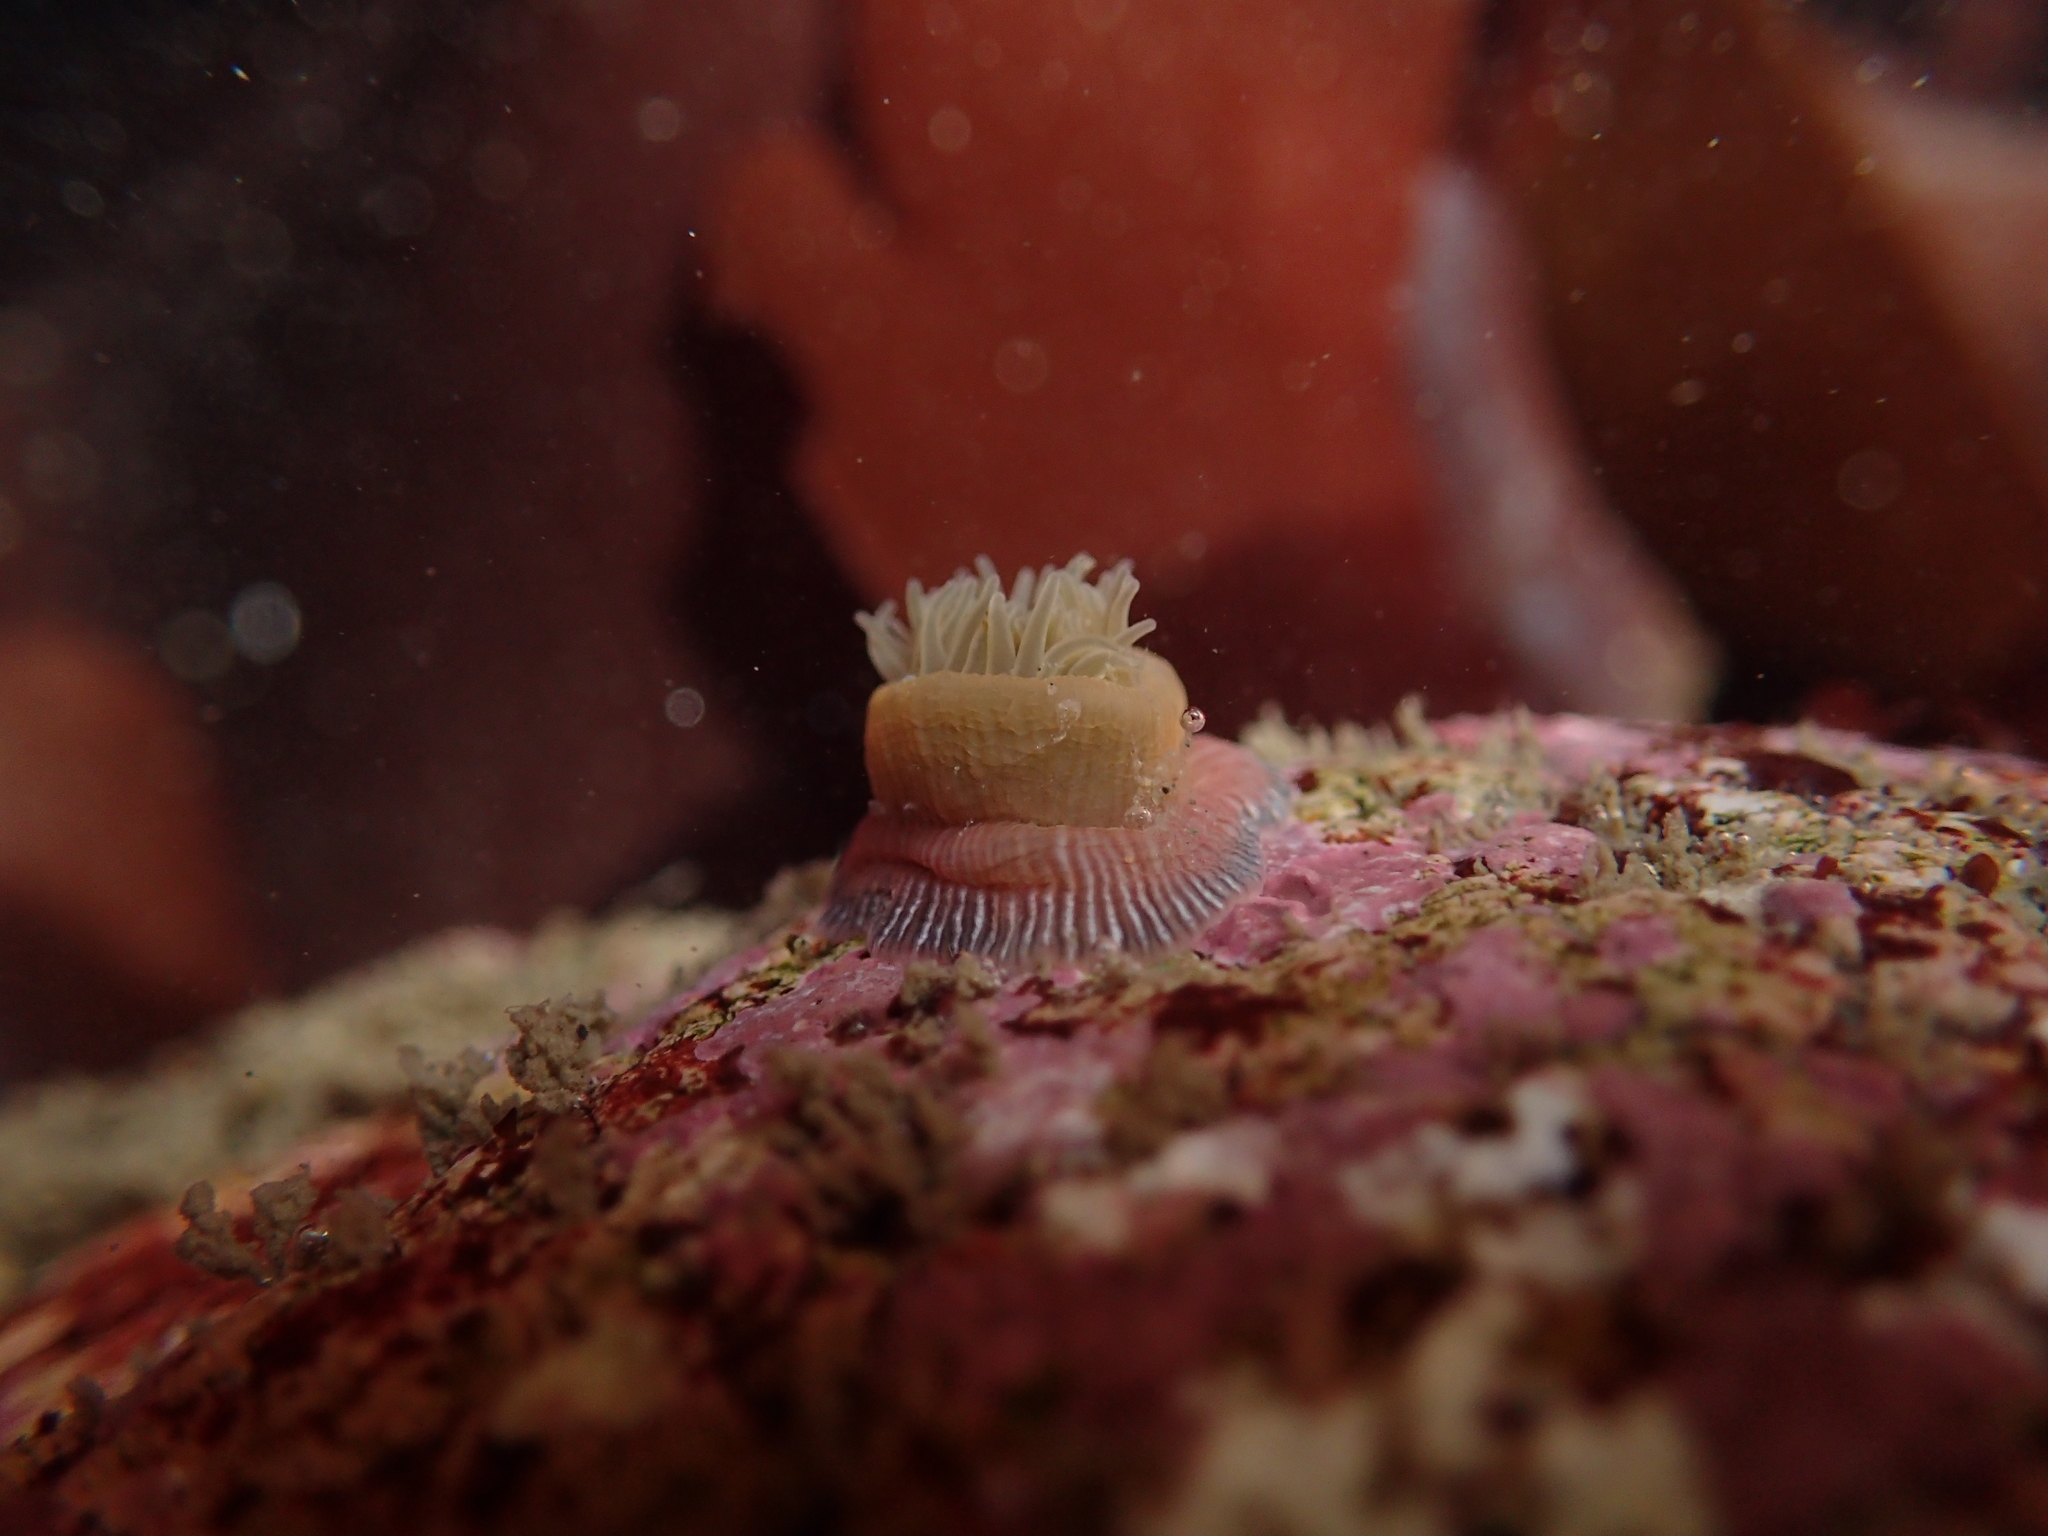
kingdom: Animalia
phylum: Cnidaria
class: Anthozoa
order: Actiniaria
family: Actiniidae
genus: Epiactis
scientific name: Epiactis prolifera
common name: Brooding anemone
